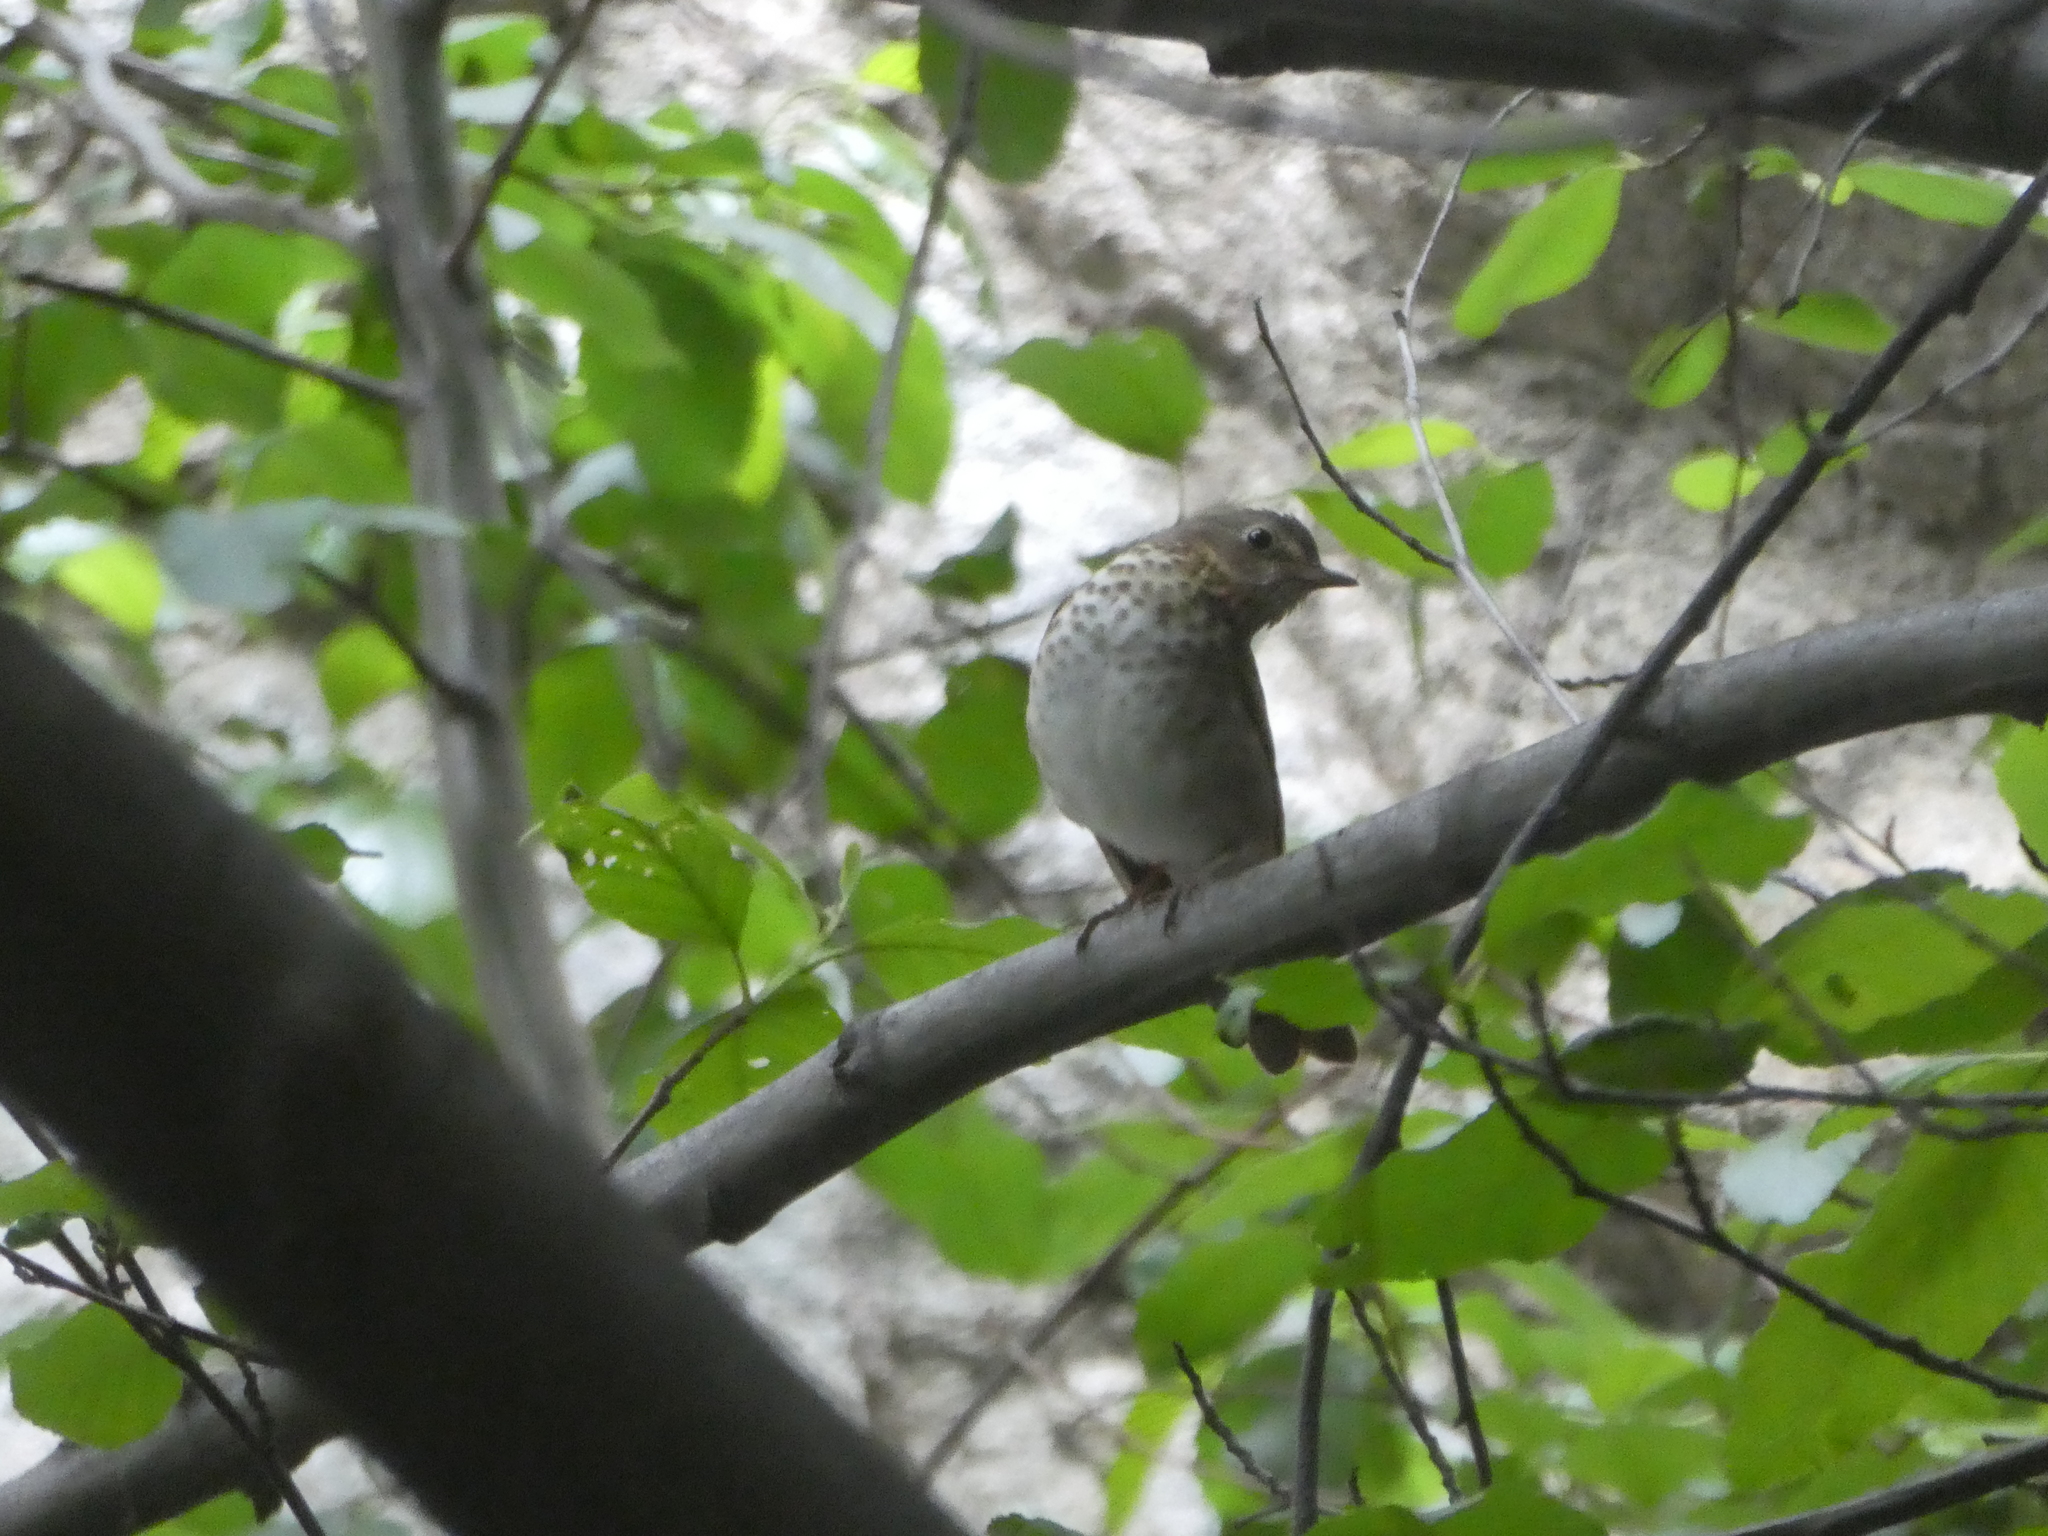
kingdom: Animalia
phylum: Chordata
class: Aves
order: Passeriformes
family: Turdidae
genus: Catharus
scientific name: Catharus ustulatus
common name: Swainson's thrush
